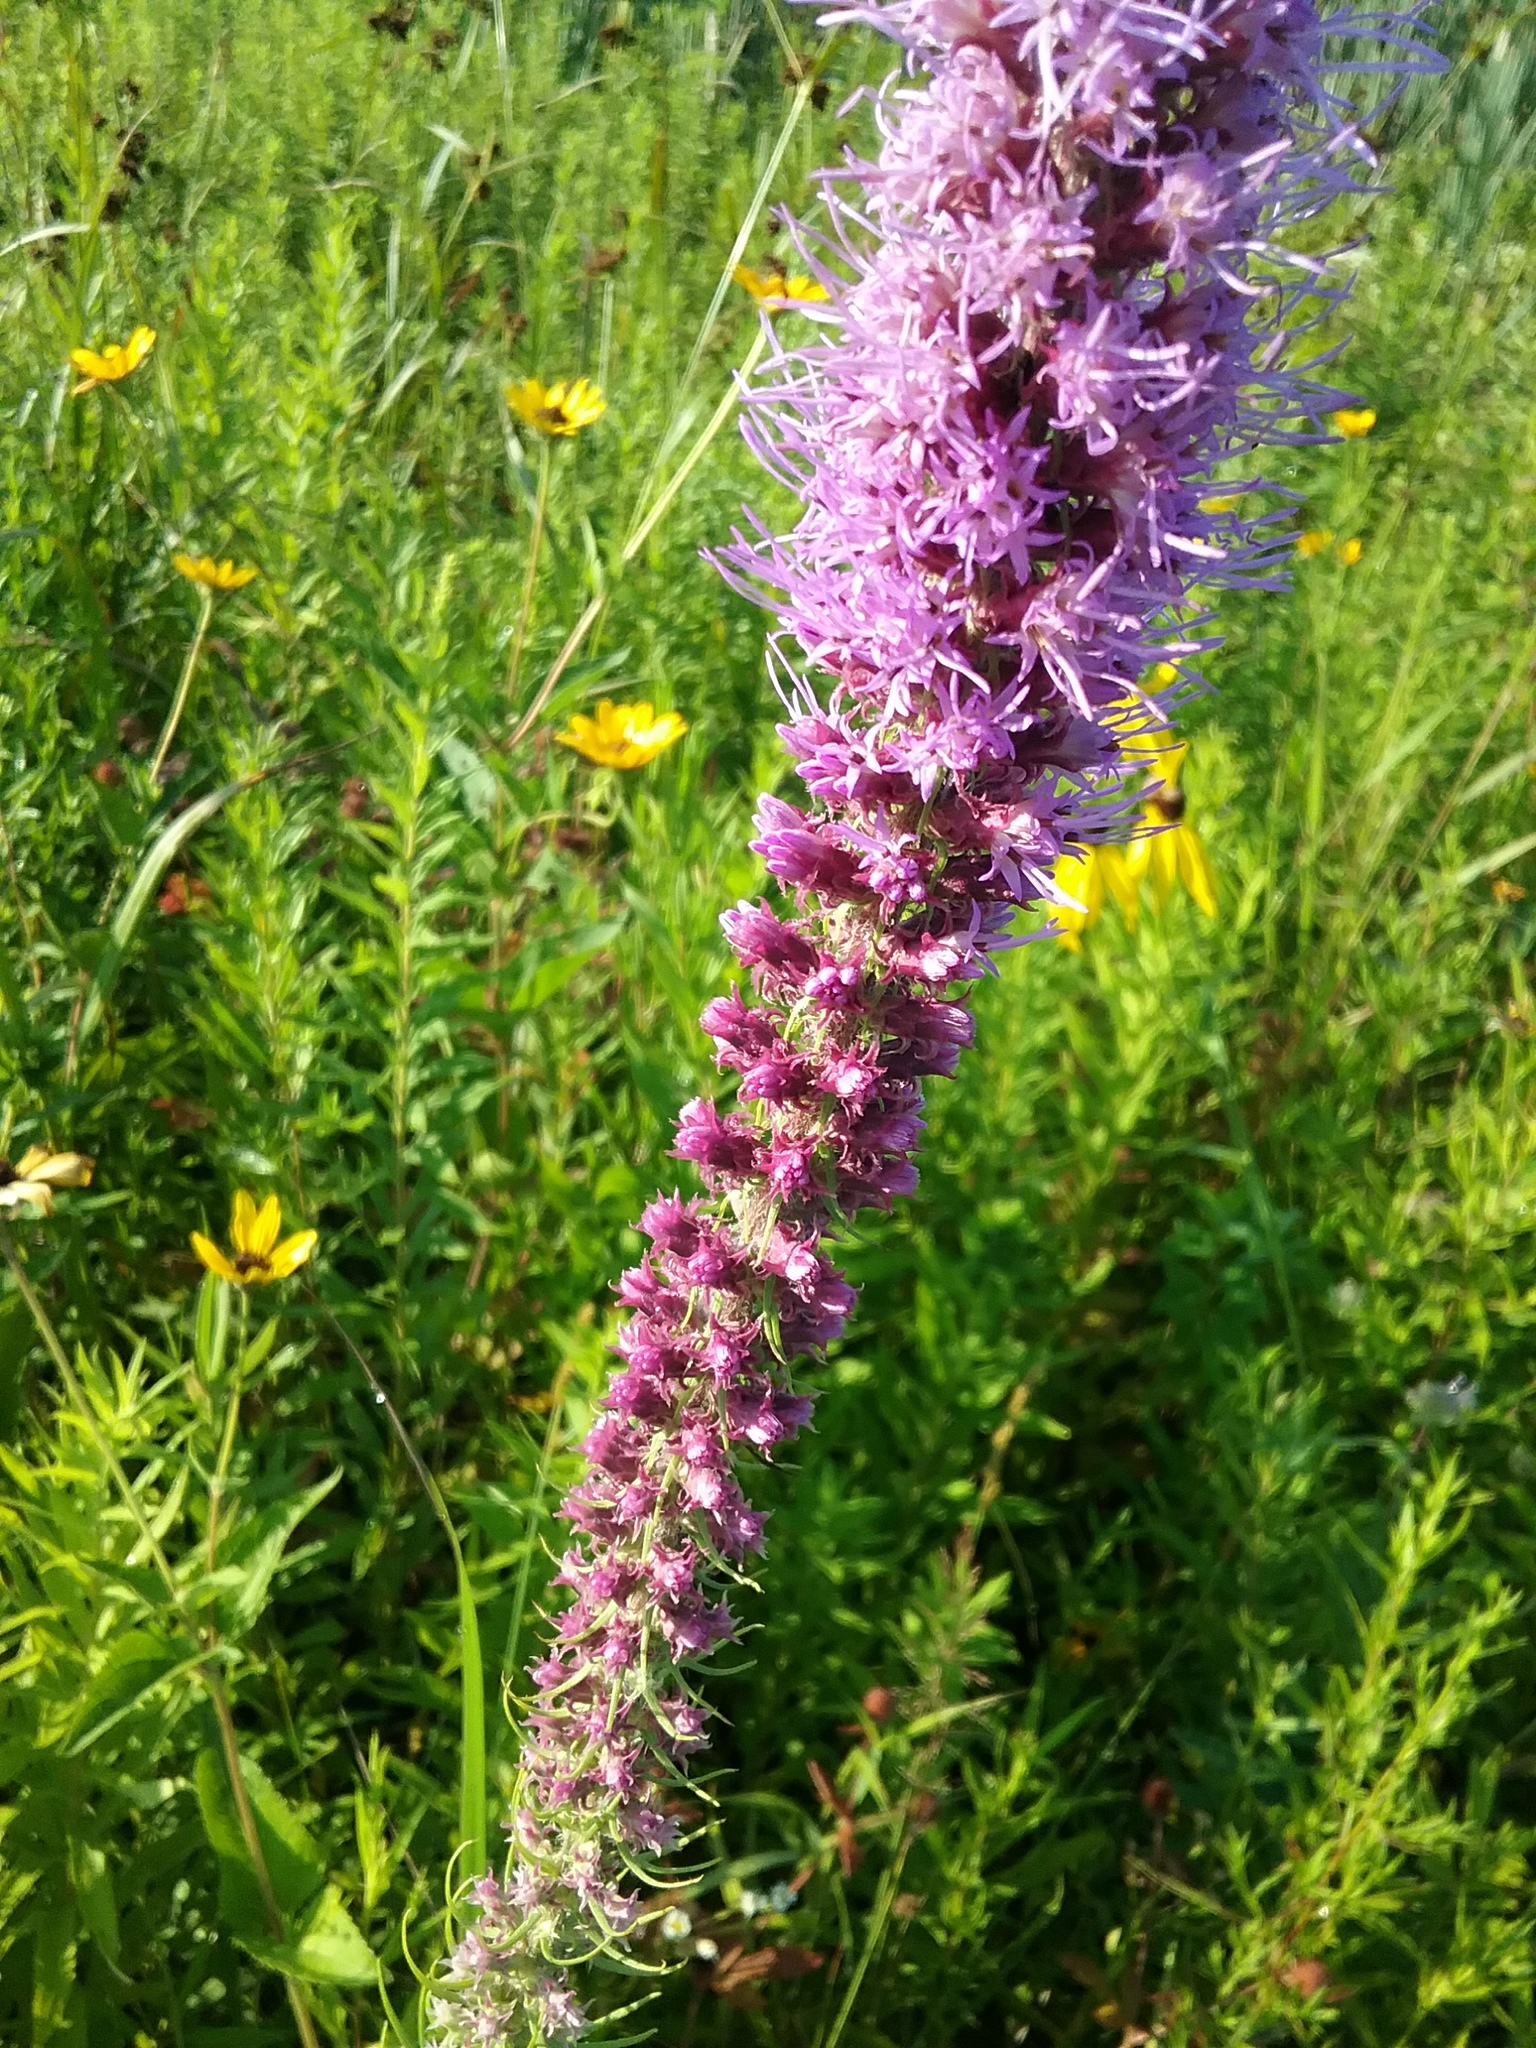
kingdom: Plantae
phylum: Tracheophyta
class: Magnoliopsida
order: Asterales
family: Asteraceae
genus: Liatris
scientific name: Liatris pycnostachya
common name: Cattail gayfeather
